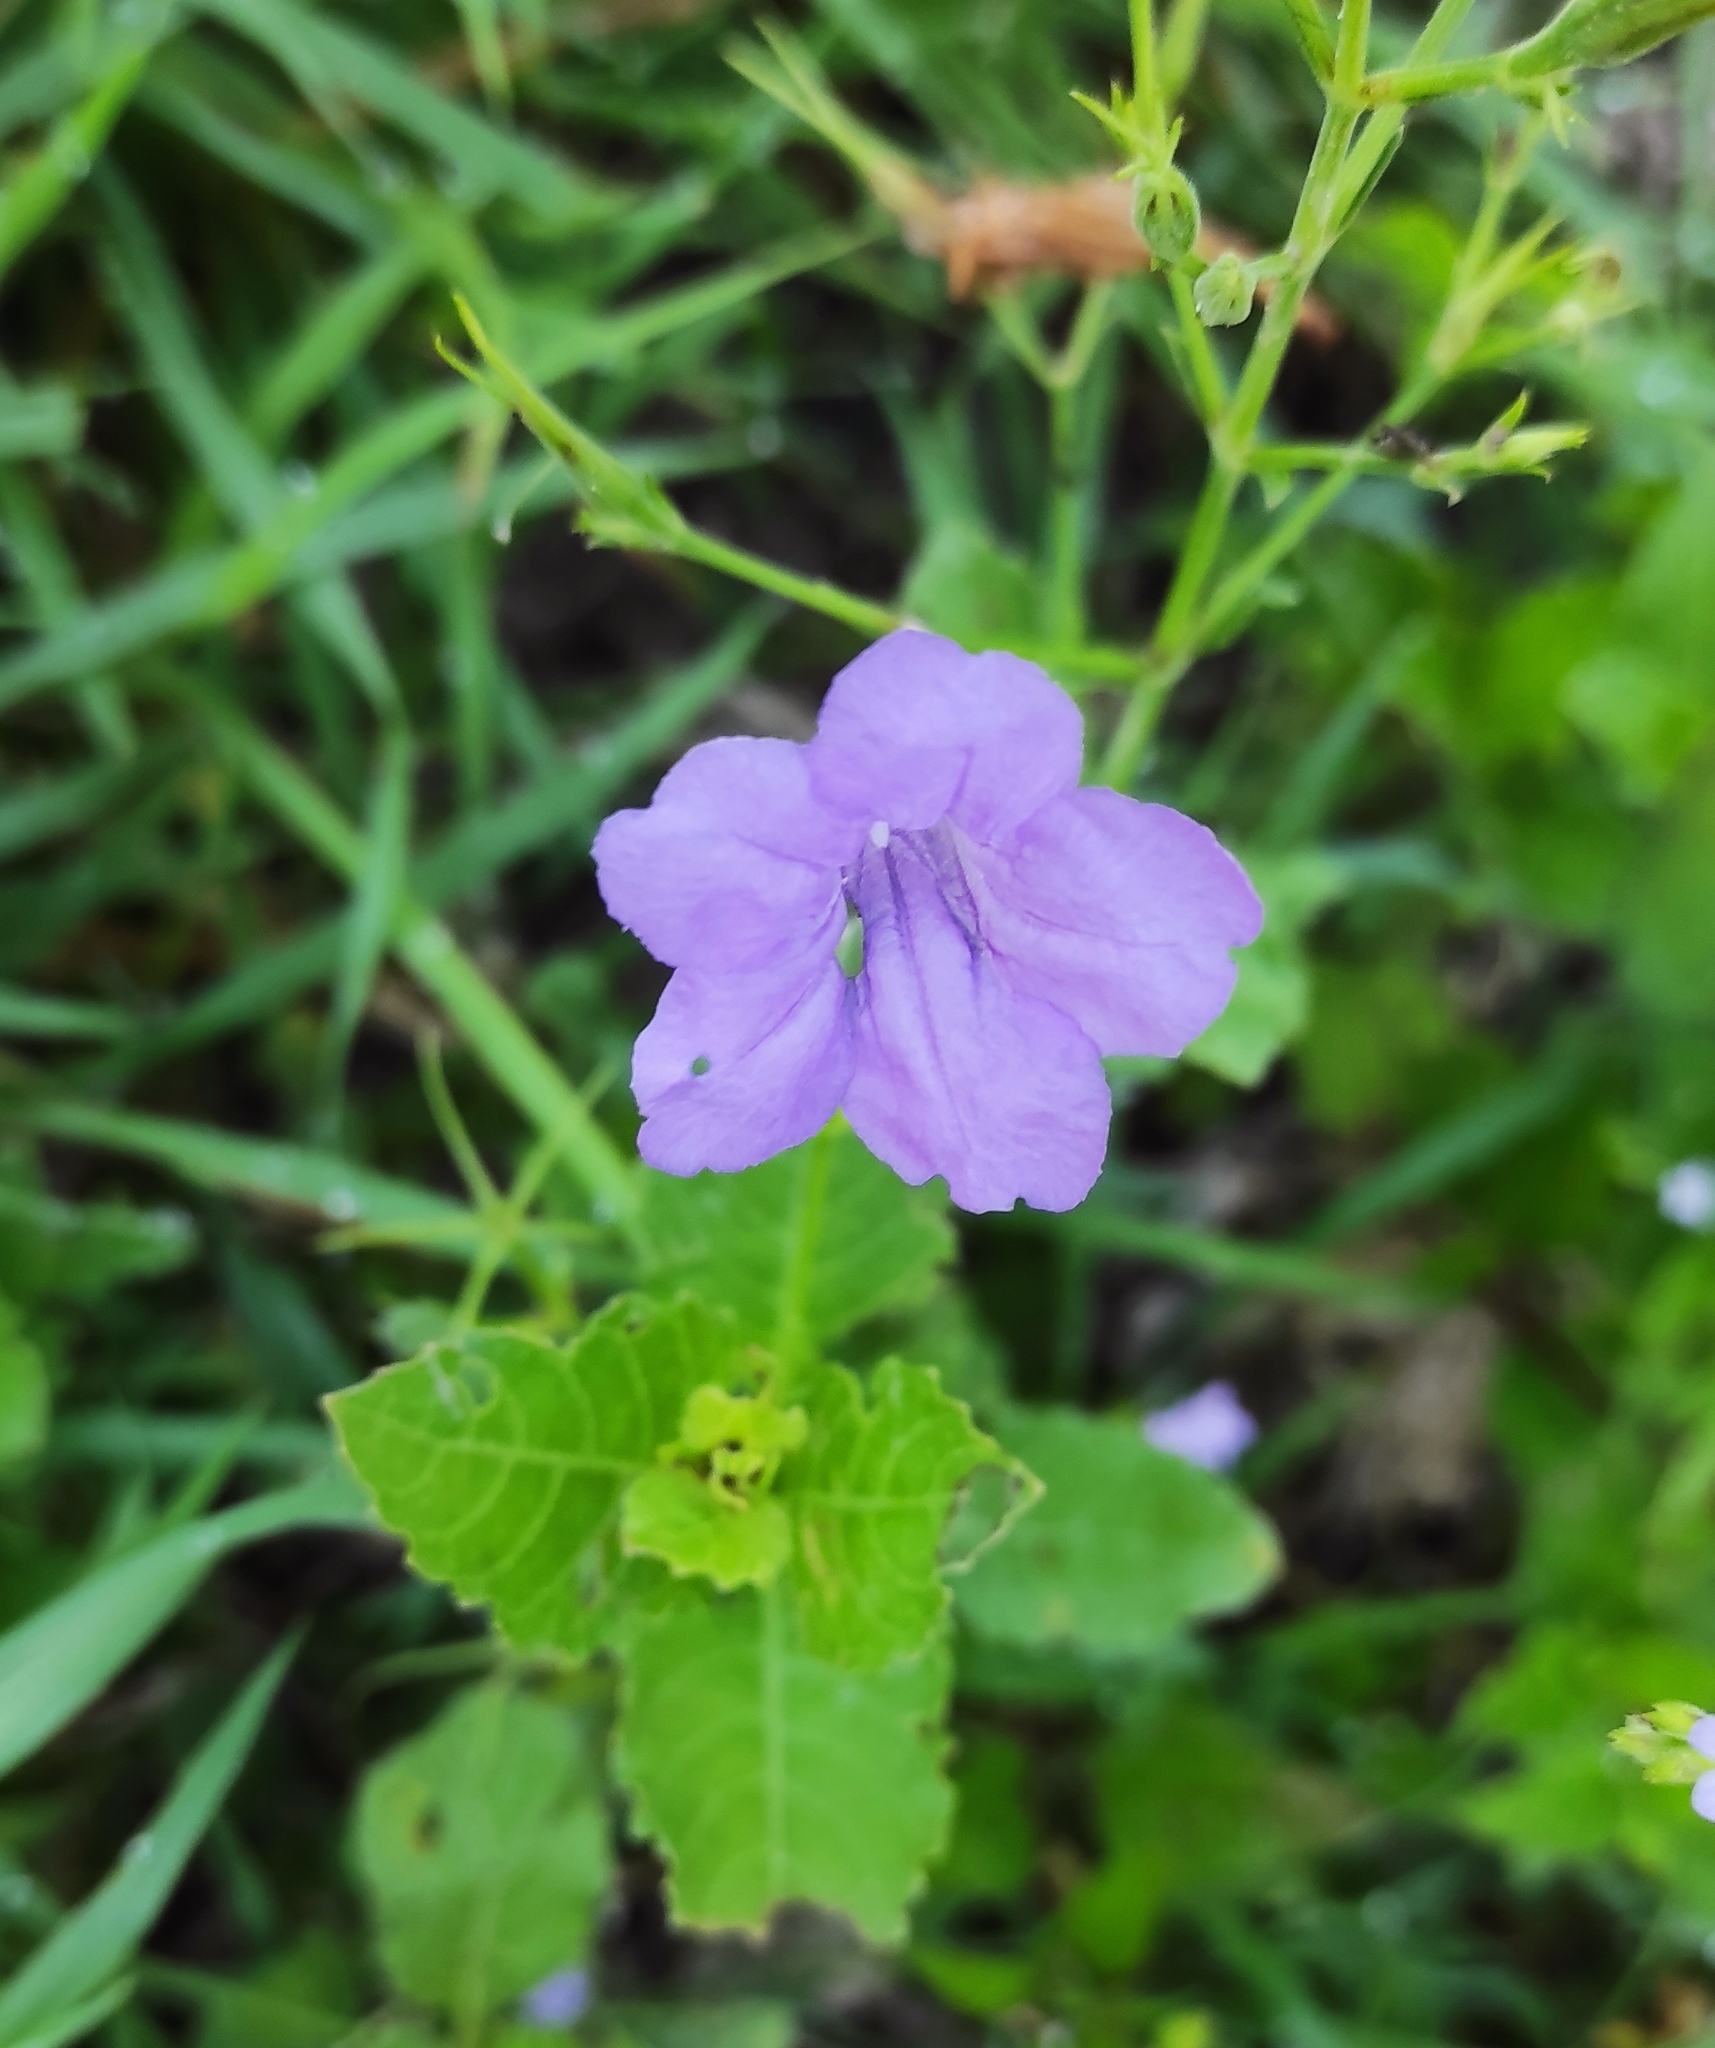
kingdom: Plantae
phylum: Tracheophyta
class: Magnoliopsida
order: Lamiales
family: Acanthaceae
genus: Ruellia
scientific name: Ruellia tuberosa
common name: Devil's bit
